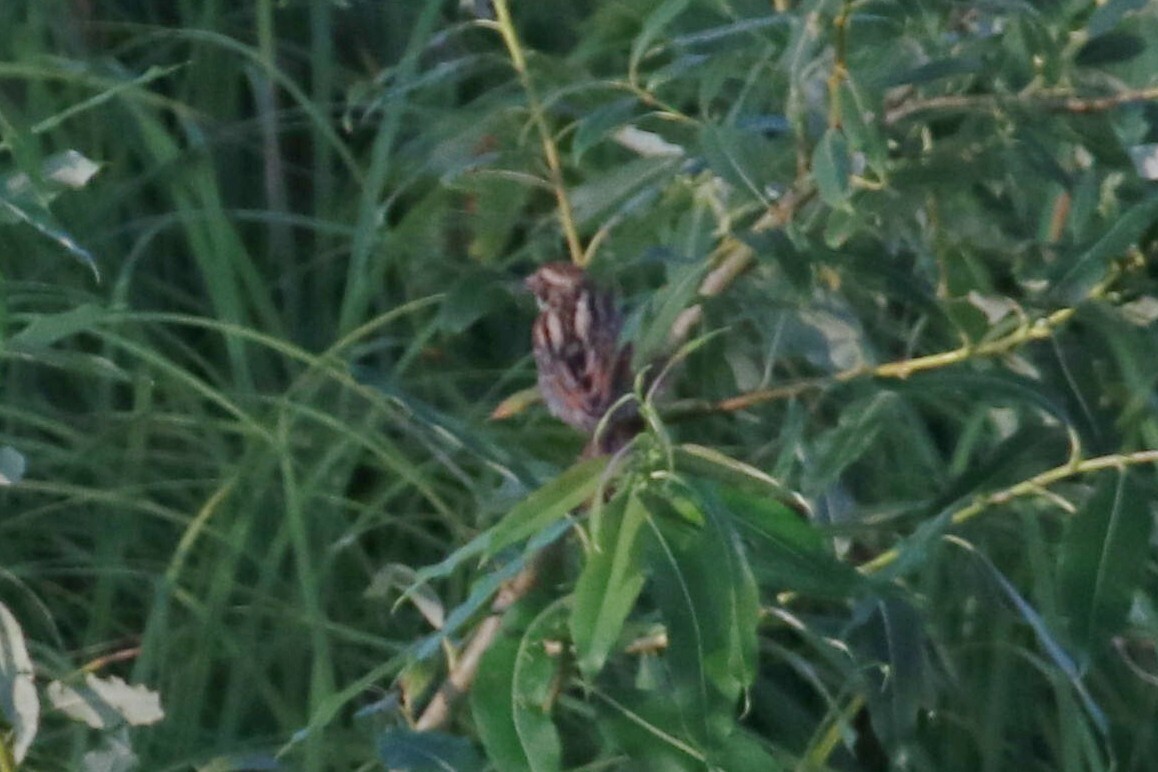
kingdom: Animalia
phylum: Chordata
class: Aves
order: Passeriformes
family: Emberizidae
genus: Emberiza
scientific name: Emberiza schoeniclus
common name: Reed bunting
